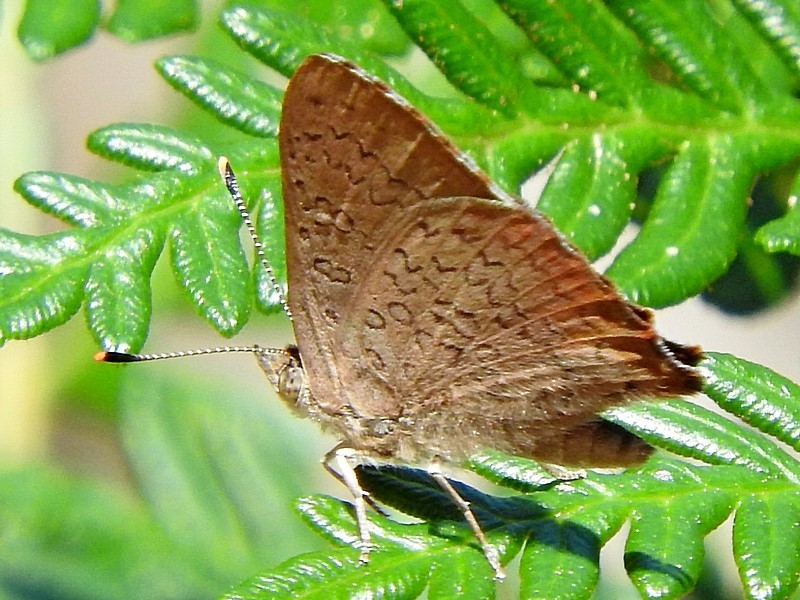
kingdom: Animalia
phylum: Arthropoda
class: Insecta
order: Lepidoptera
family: Lycaenidae
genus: Paralucia
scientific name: Paralucia pyrodiscus
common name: Fiery copper
